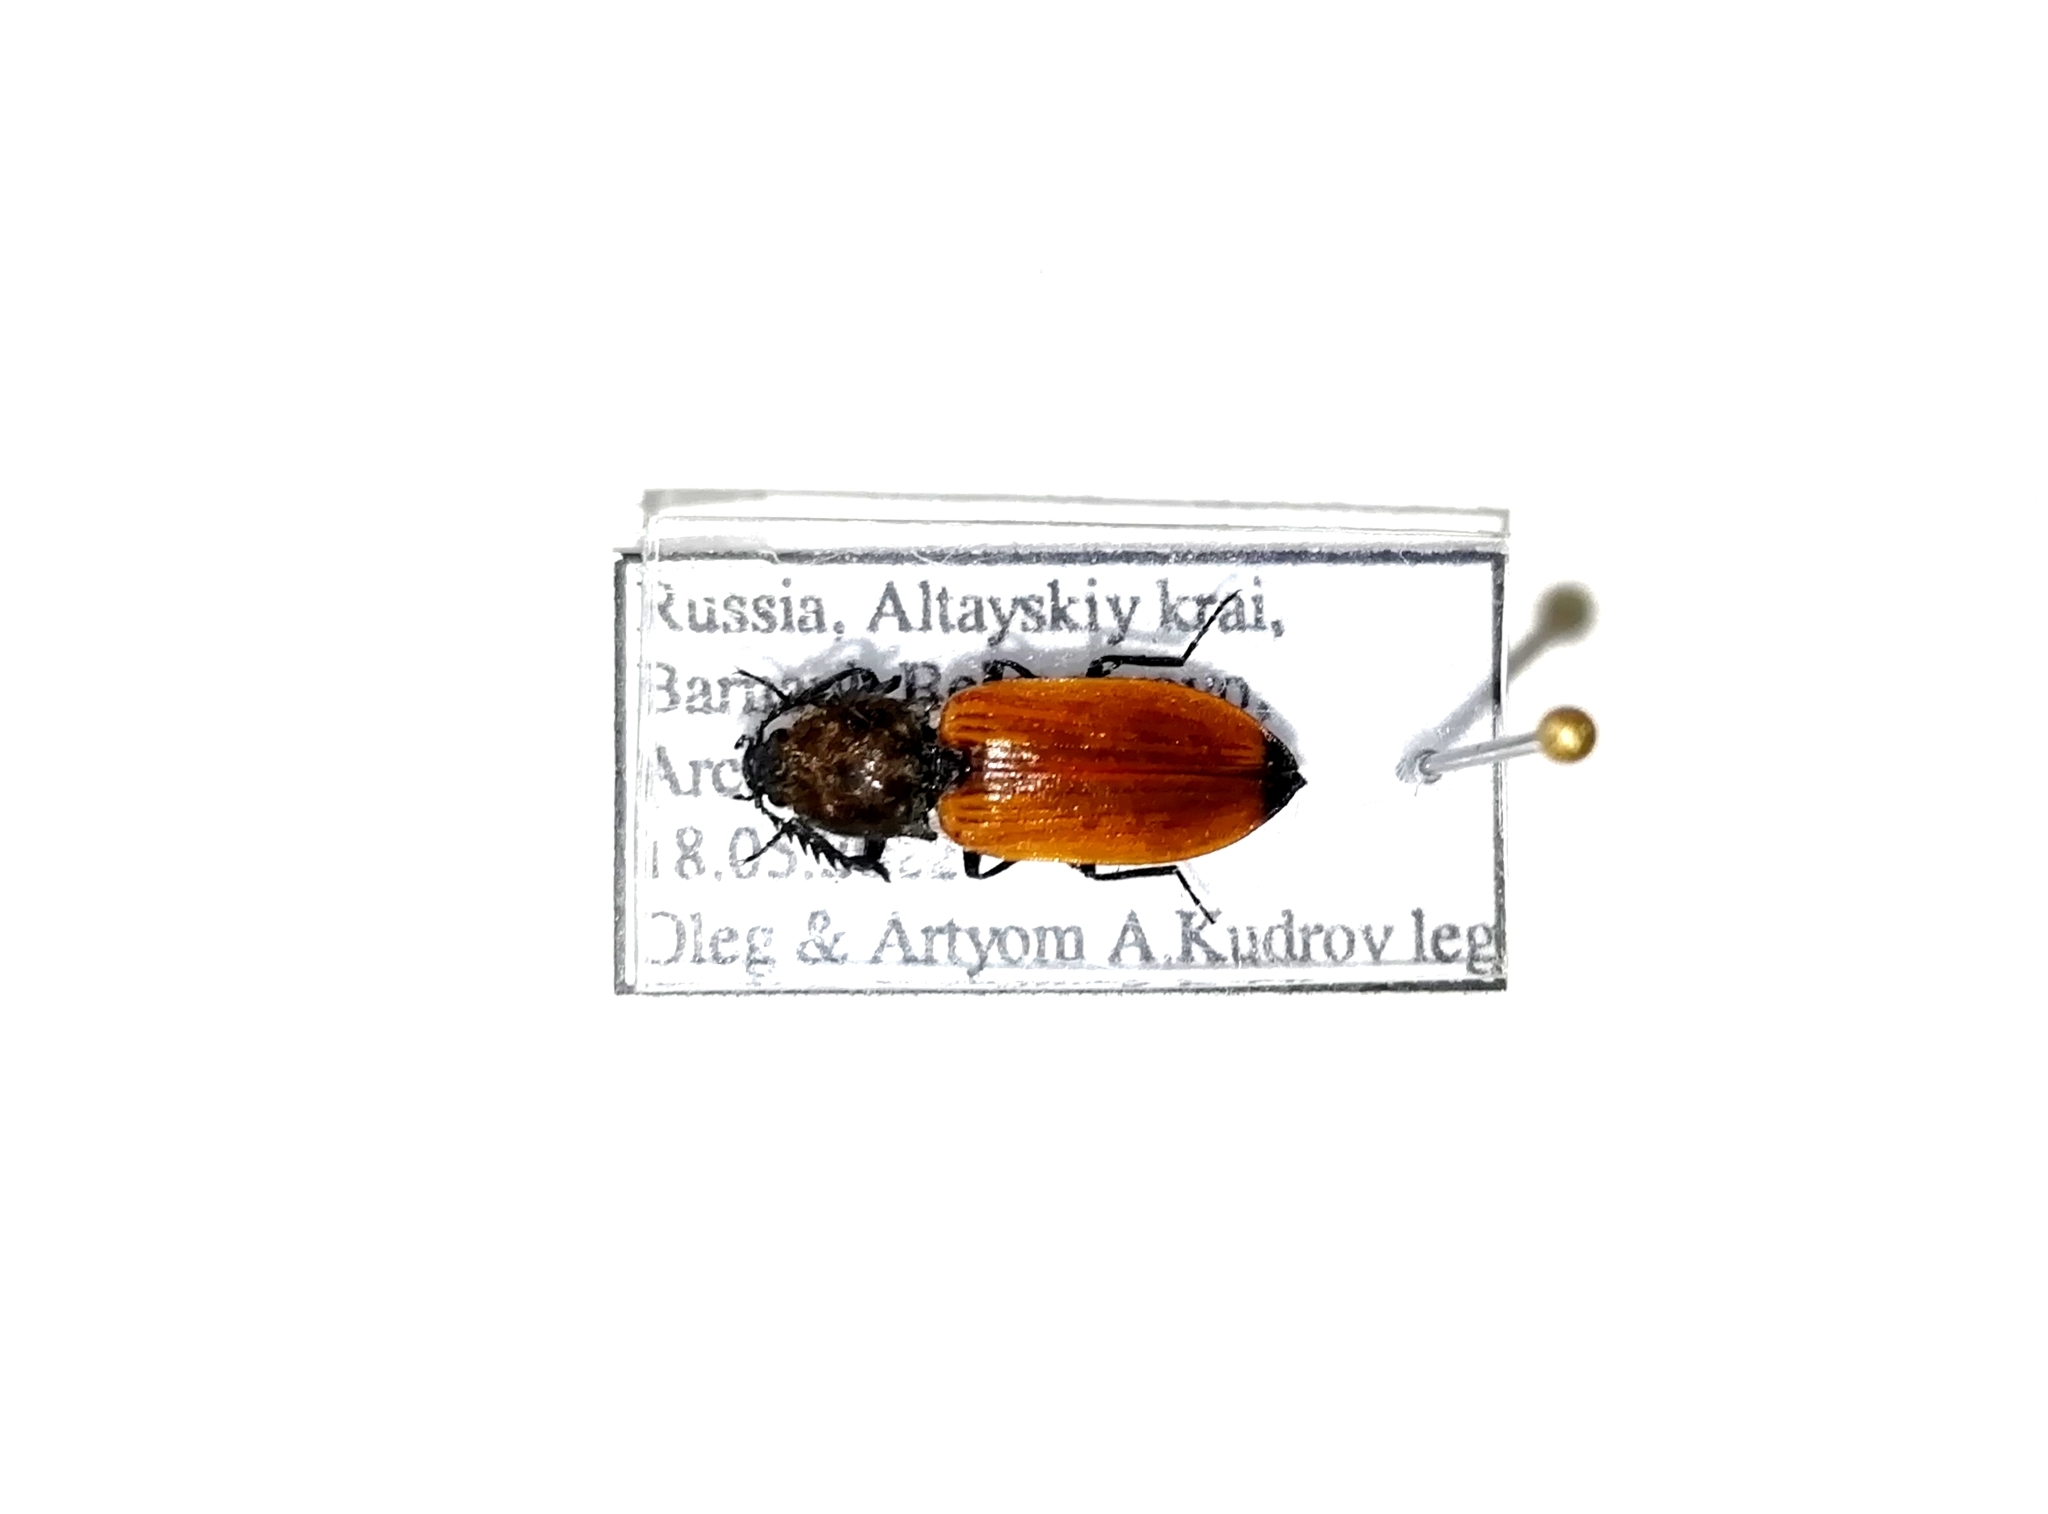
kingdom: Animalia
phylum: Arthropoda
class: Insecta
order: Coleoptera
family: Elateridae
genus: Anostirus
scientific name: Anostirus castaneus
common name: Chestnut coloured click beetle
